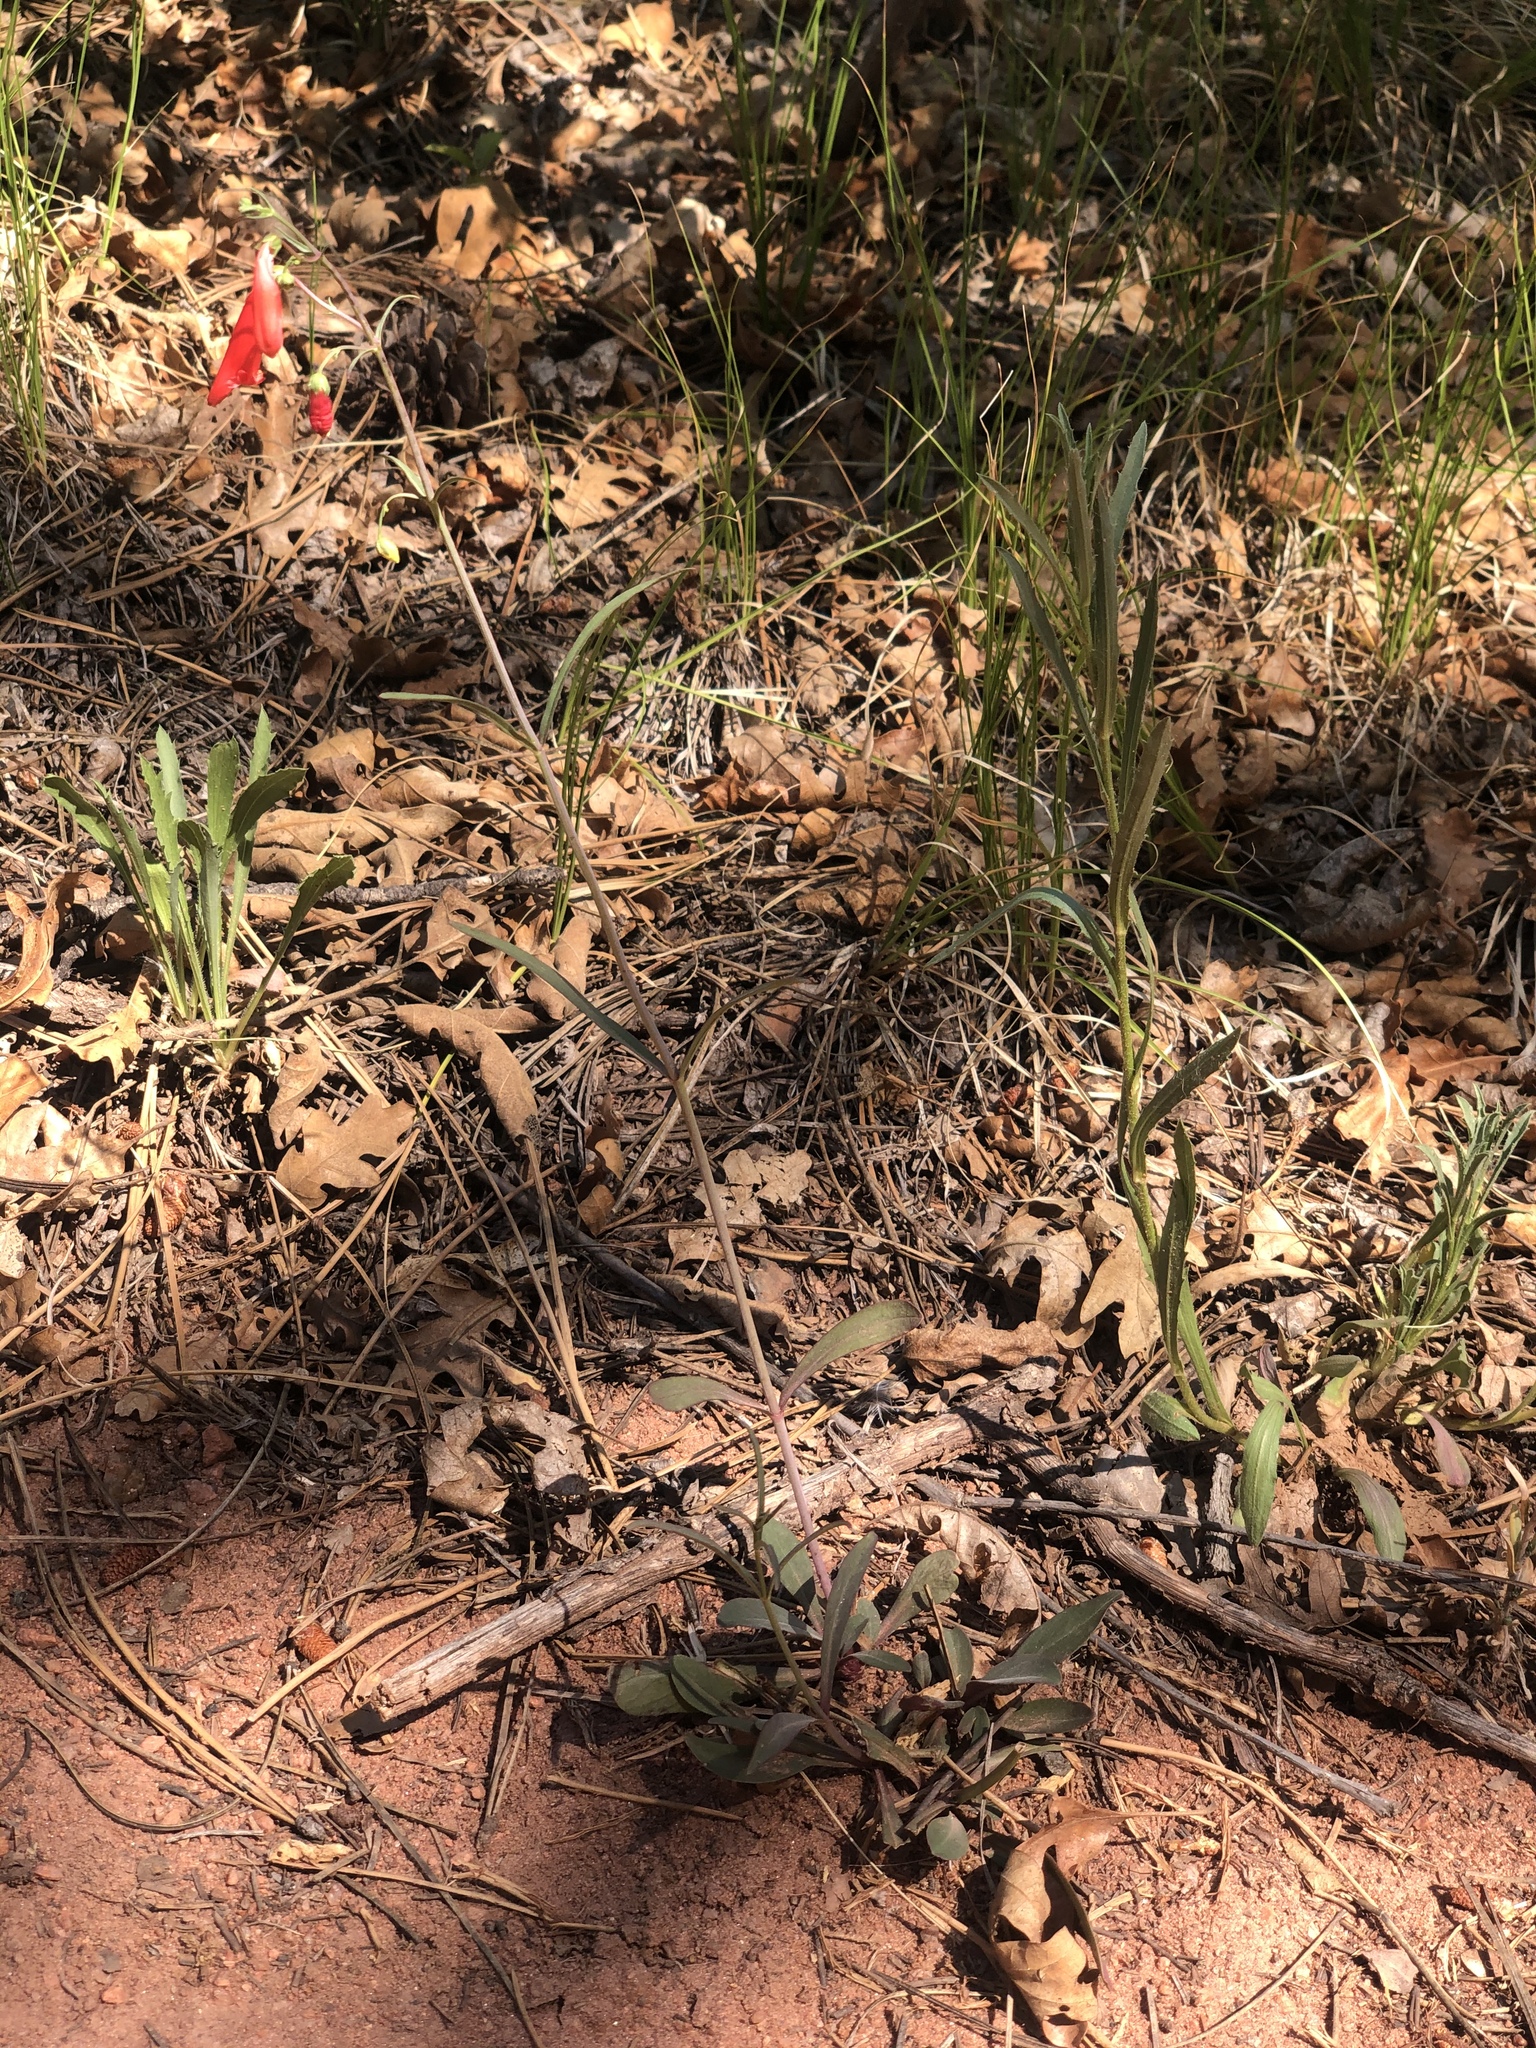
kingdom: Plantae
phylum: Tracheophyta
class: Magnoliopsida
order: Lamiales
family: Plantaginaceae
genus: Penstemon
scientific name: Penstemon barbatus
